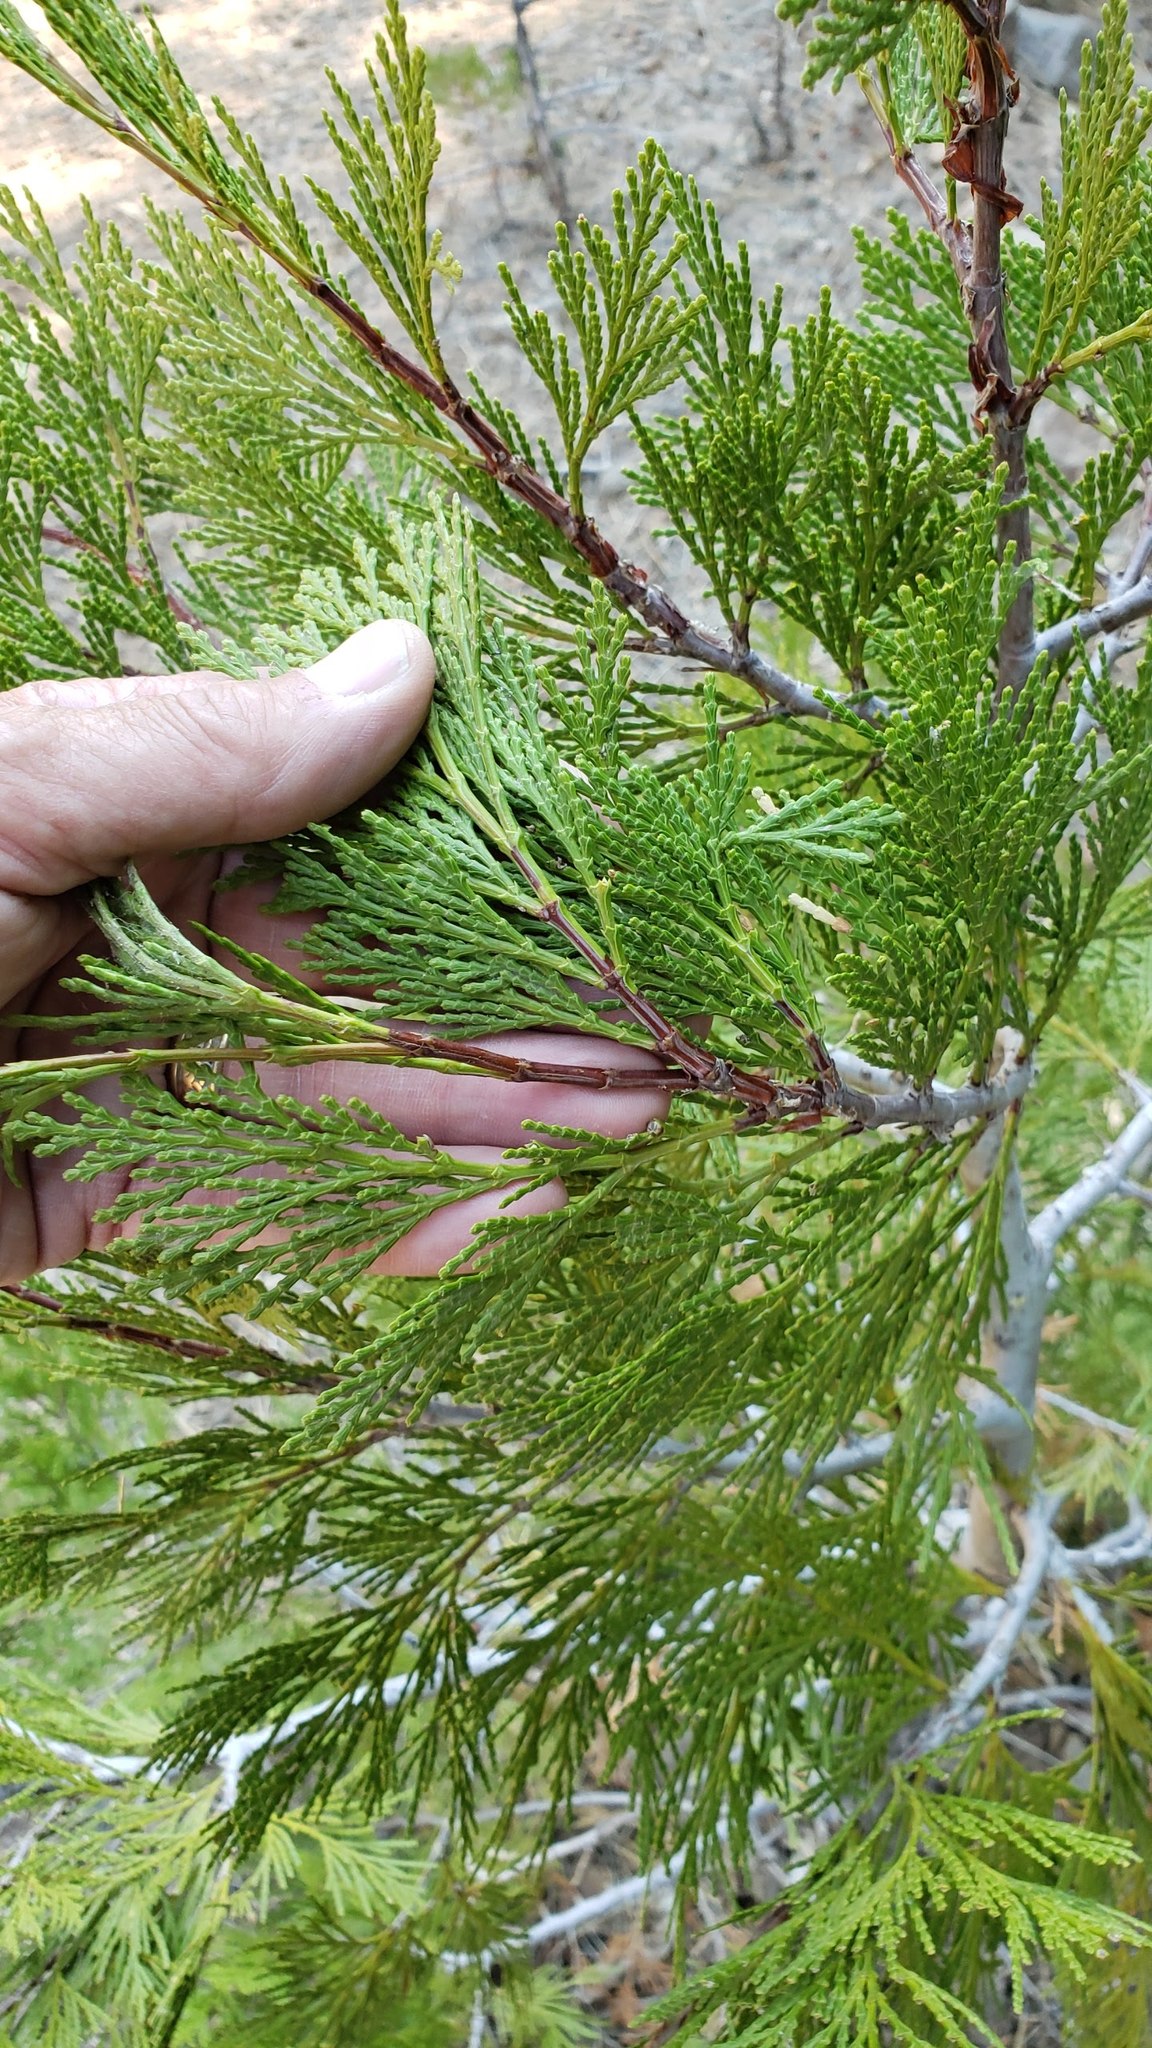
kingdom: Plantae
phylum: Tracheophyta
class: Pinopsida
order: Pinales
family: Cupressaceae
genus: Calocedrus
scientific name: Calocedrus decurrens
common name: Californian incense-cedar
